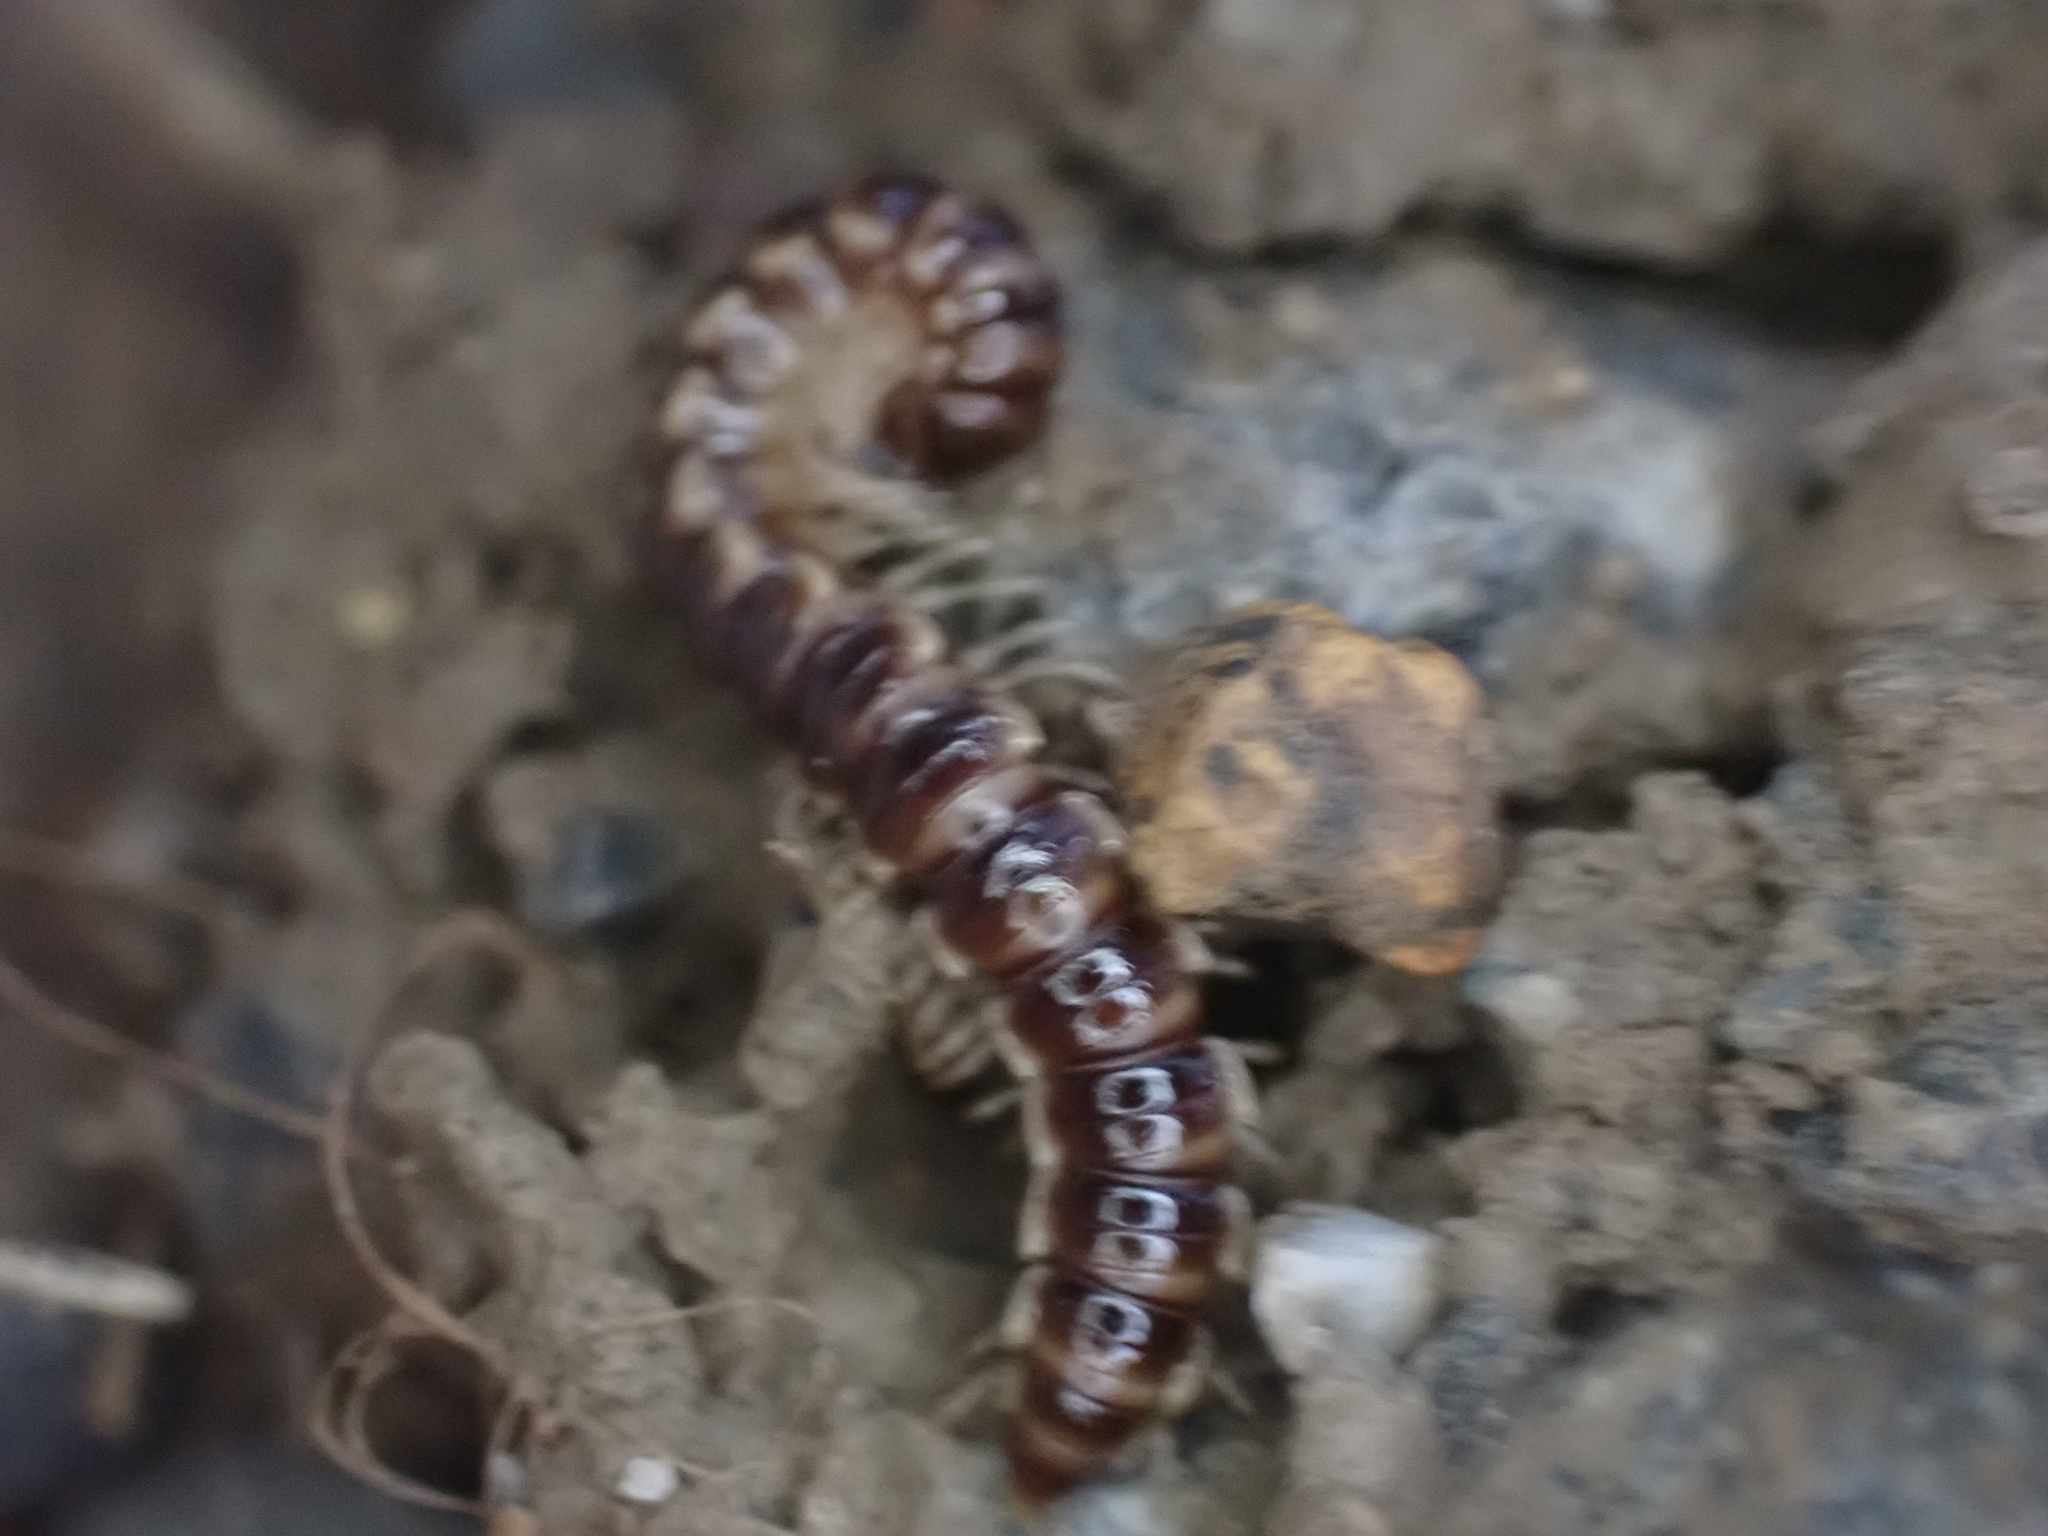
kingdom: Animalia
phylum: Arthropoda
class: Diplopoda
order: Polydesmida
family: Paradoxosomatidae
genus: Oxidus
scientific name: Oxidus gracilis
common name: Greenhouse millipede
